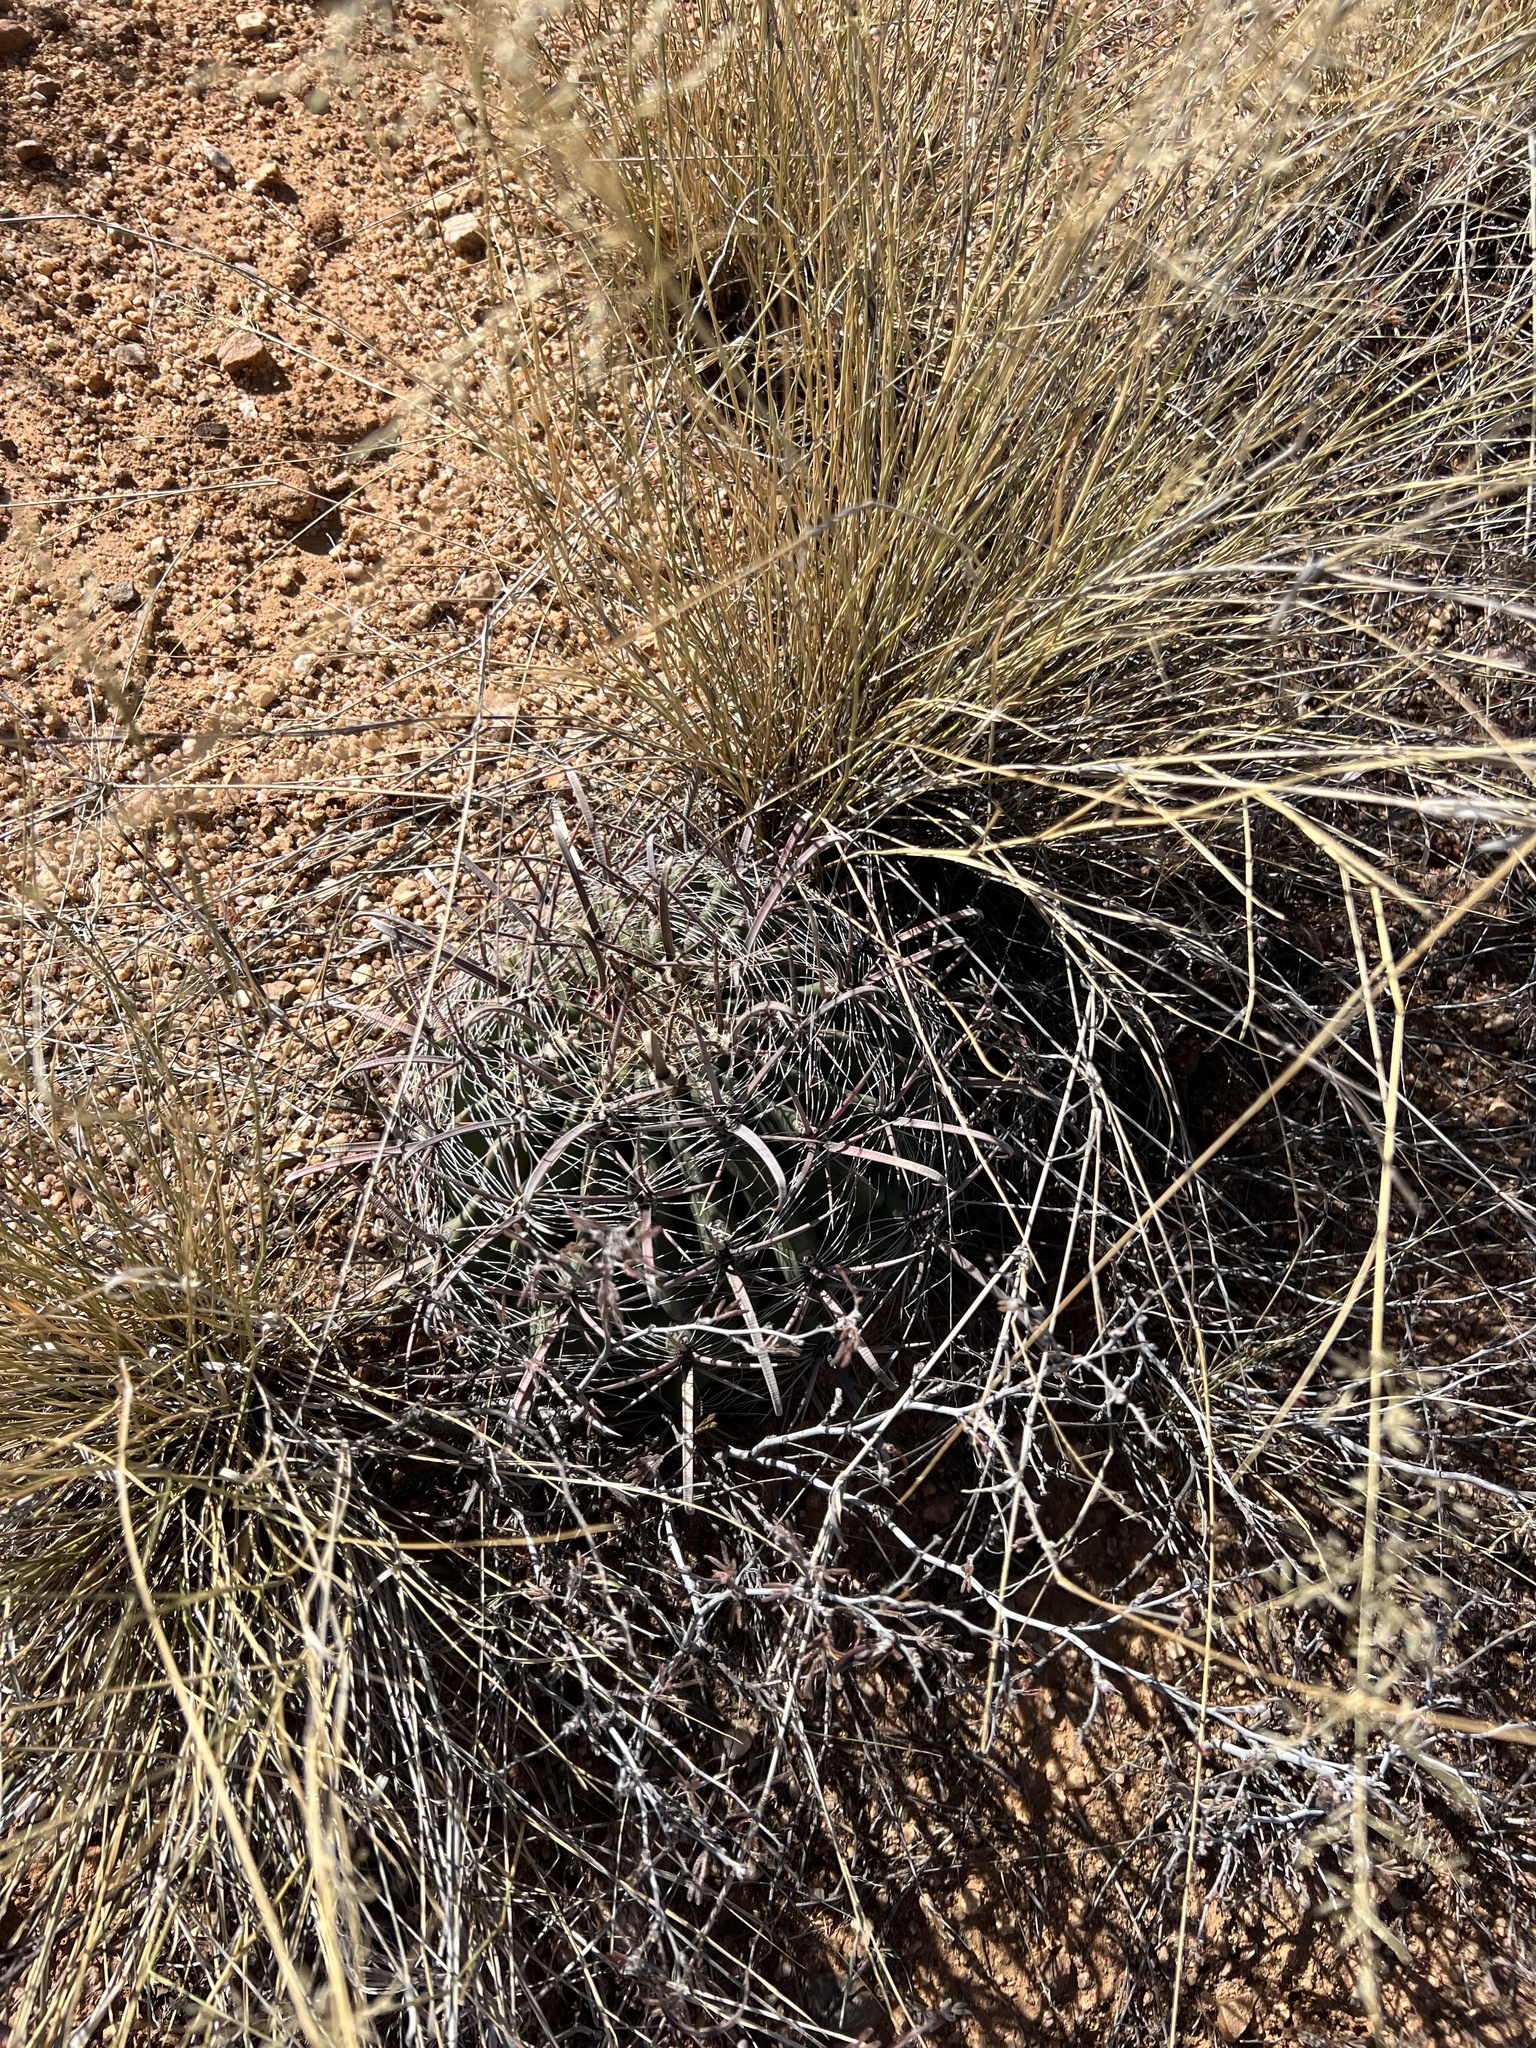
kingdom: Plantae
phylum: Tracheophyta
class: Magnoliopsida
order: Caryophyllales
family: Cactaceae
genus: Ferocactus
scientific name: Ferocactus wislizeni
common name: Candy barrel cactus
